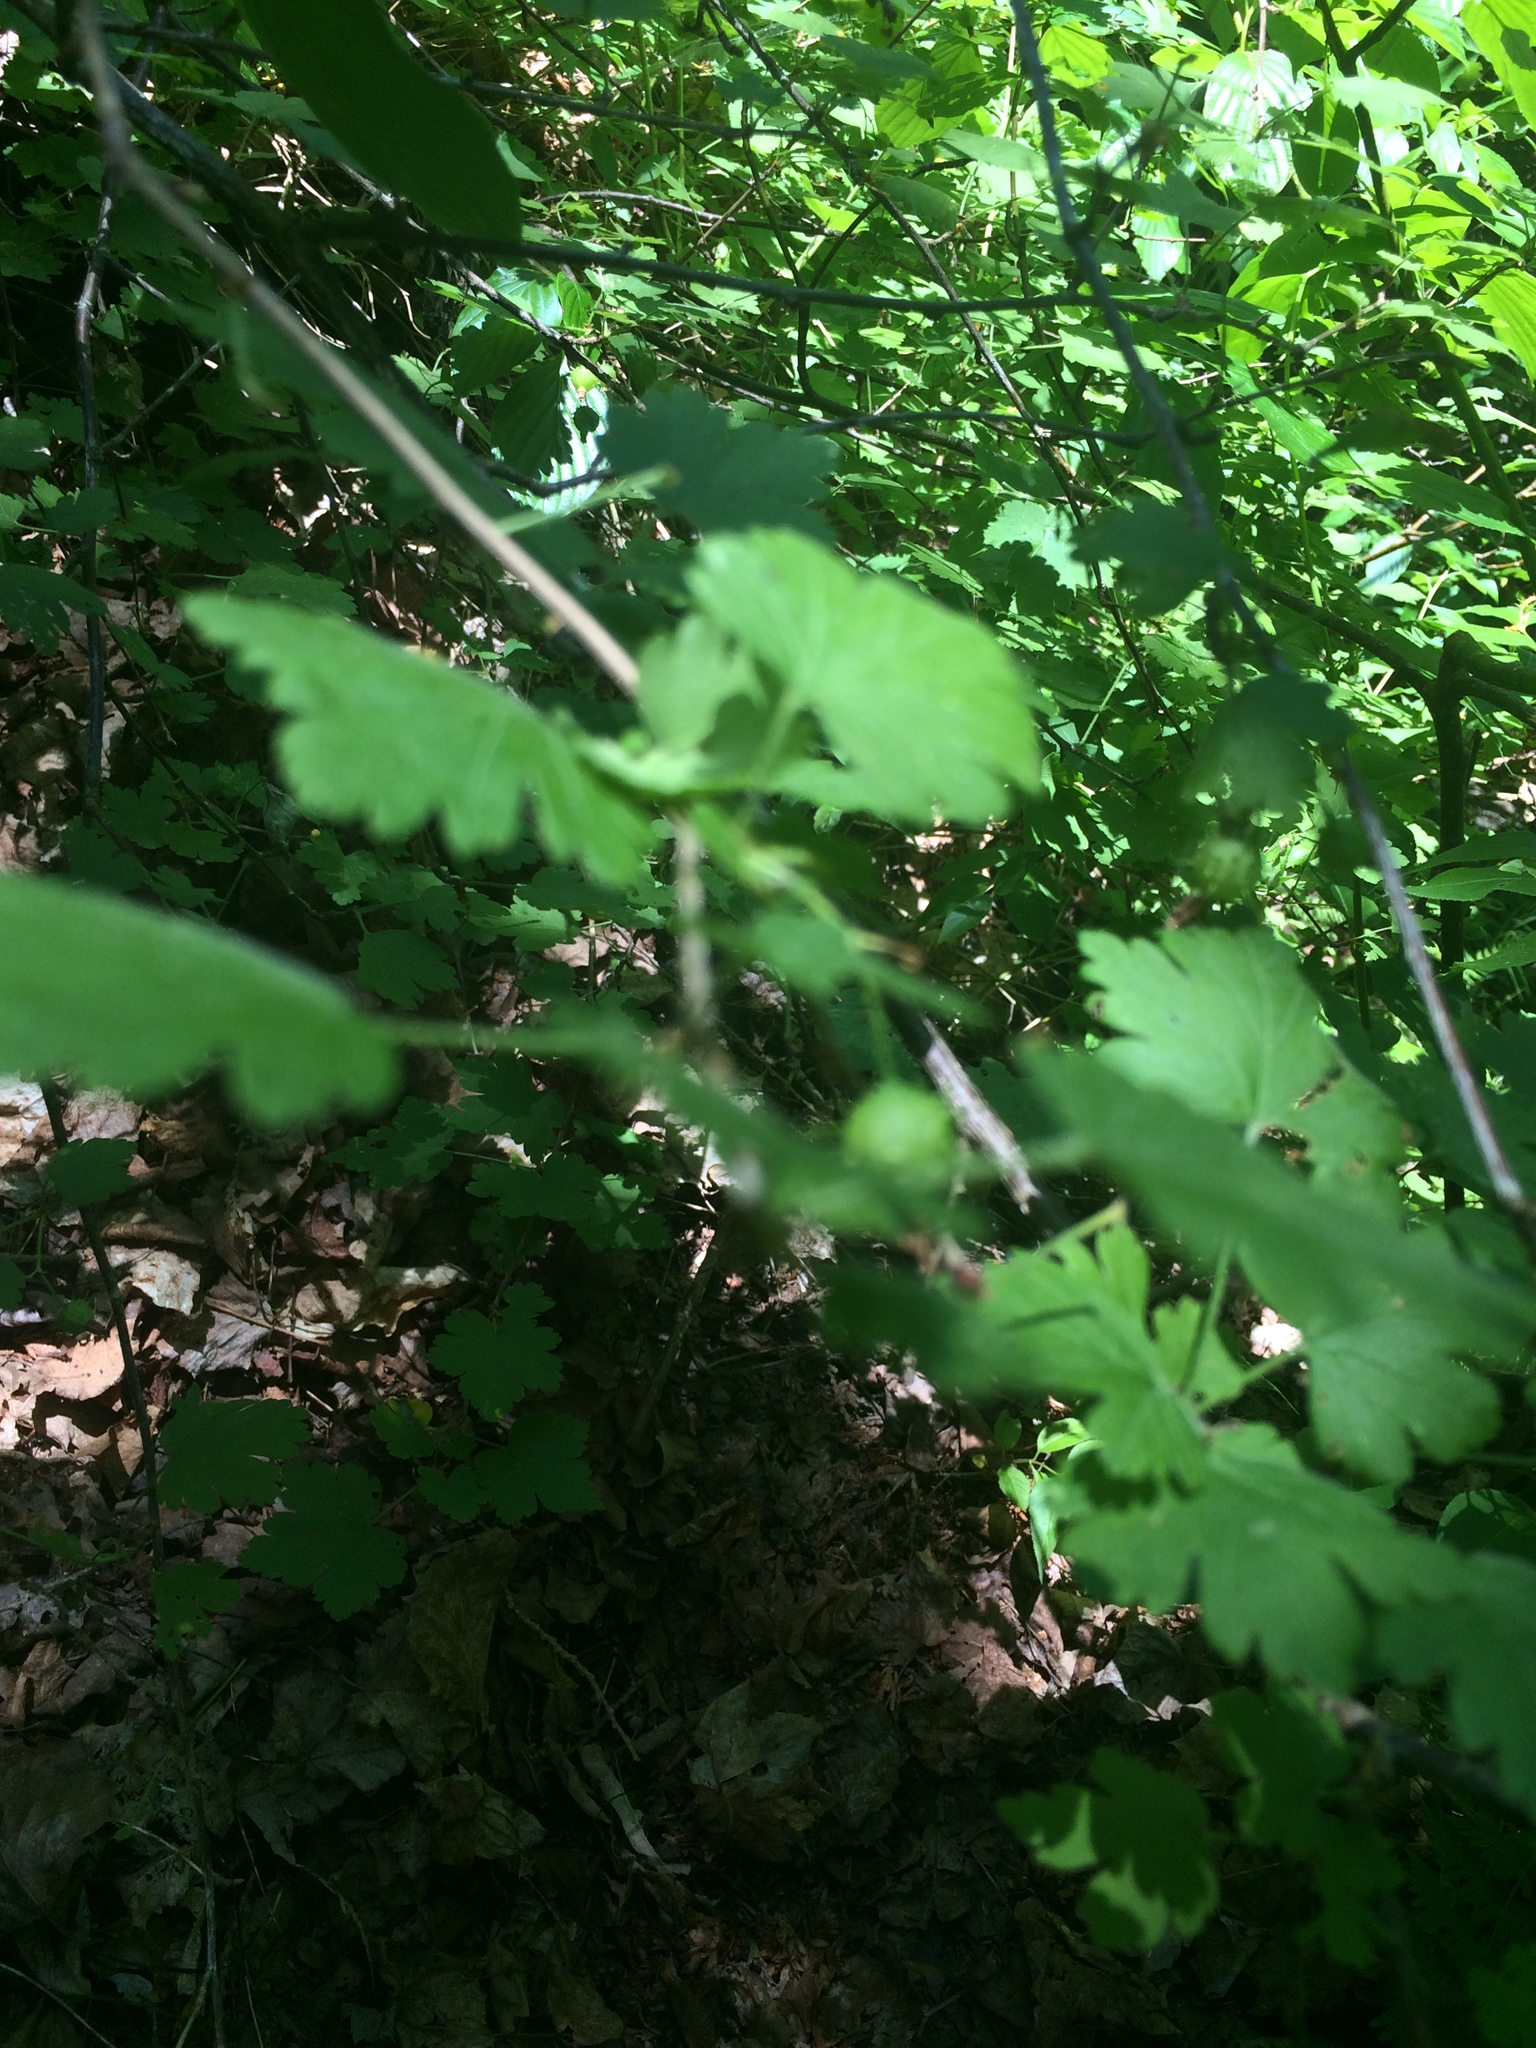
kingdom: Plantae
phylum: Tracheophyta
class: Magnoliopsida
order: Saxifragales
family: Grossulariaceae
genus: Ribes
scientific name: Ribes cynosbati
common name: American gooseberry
